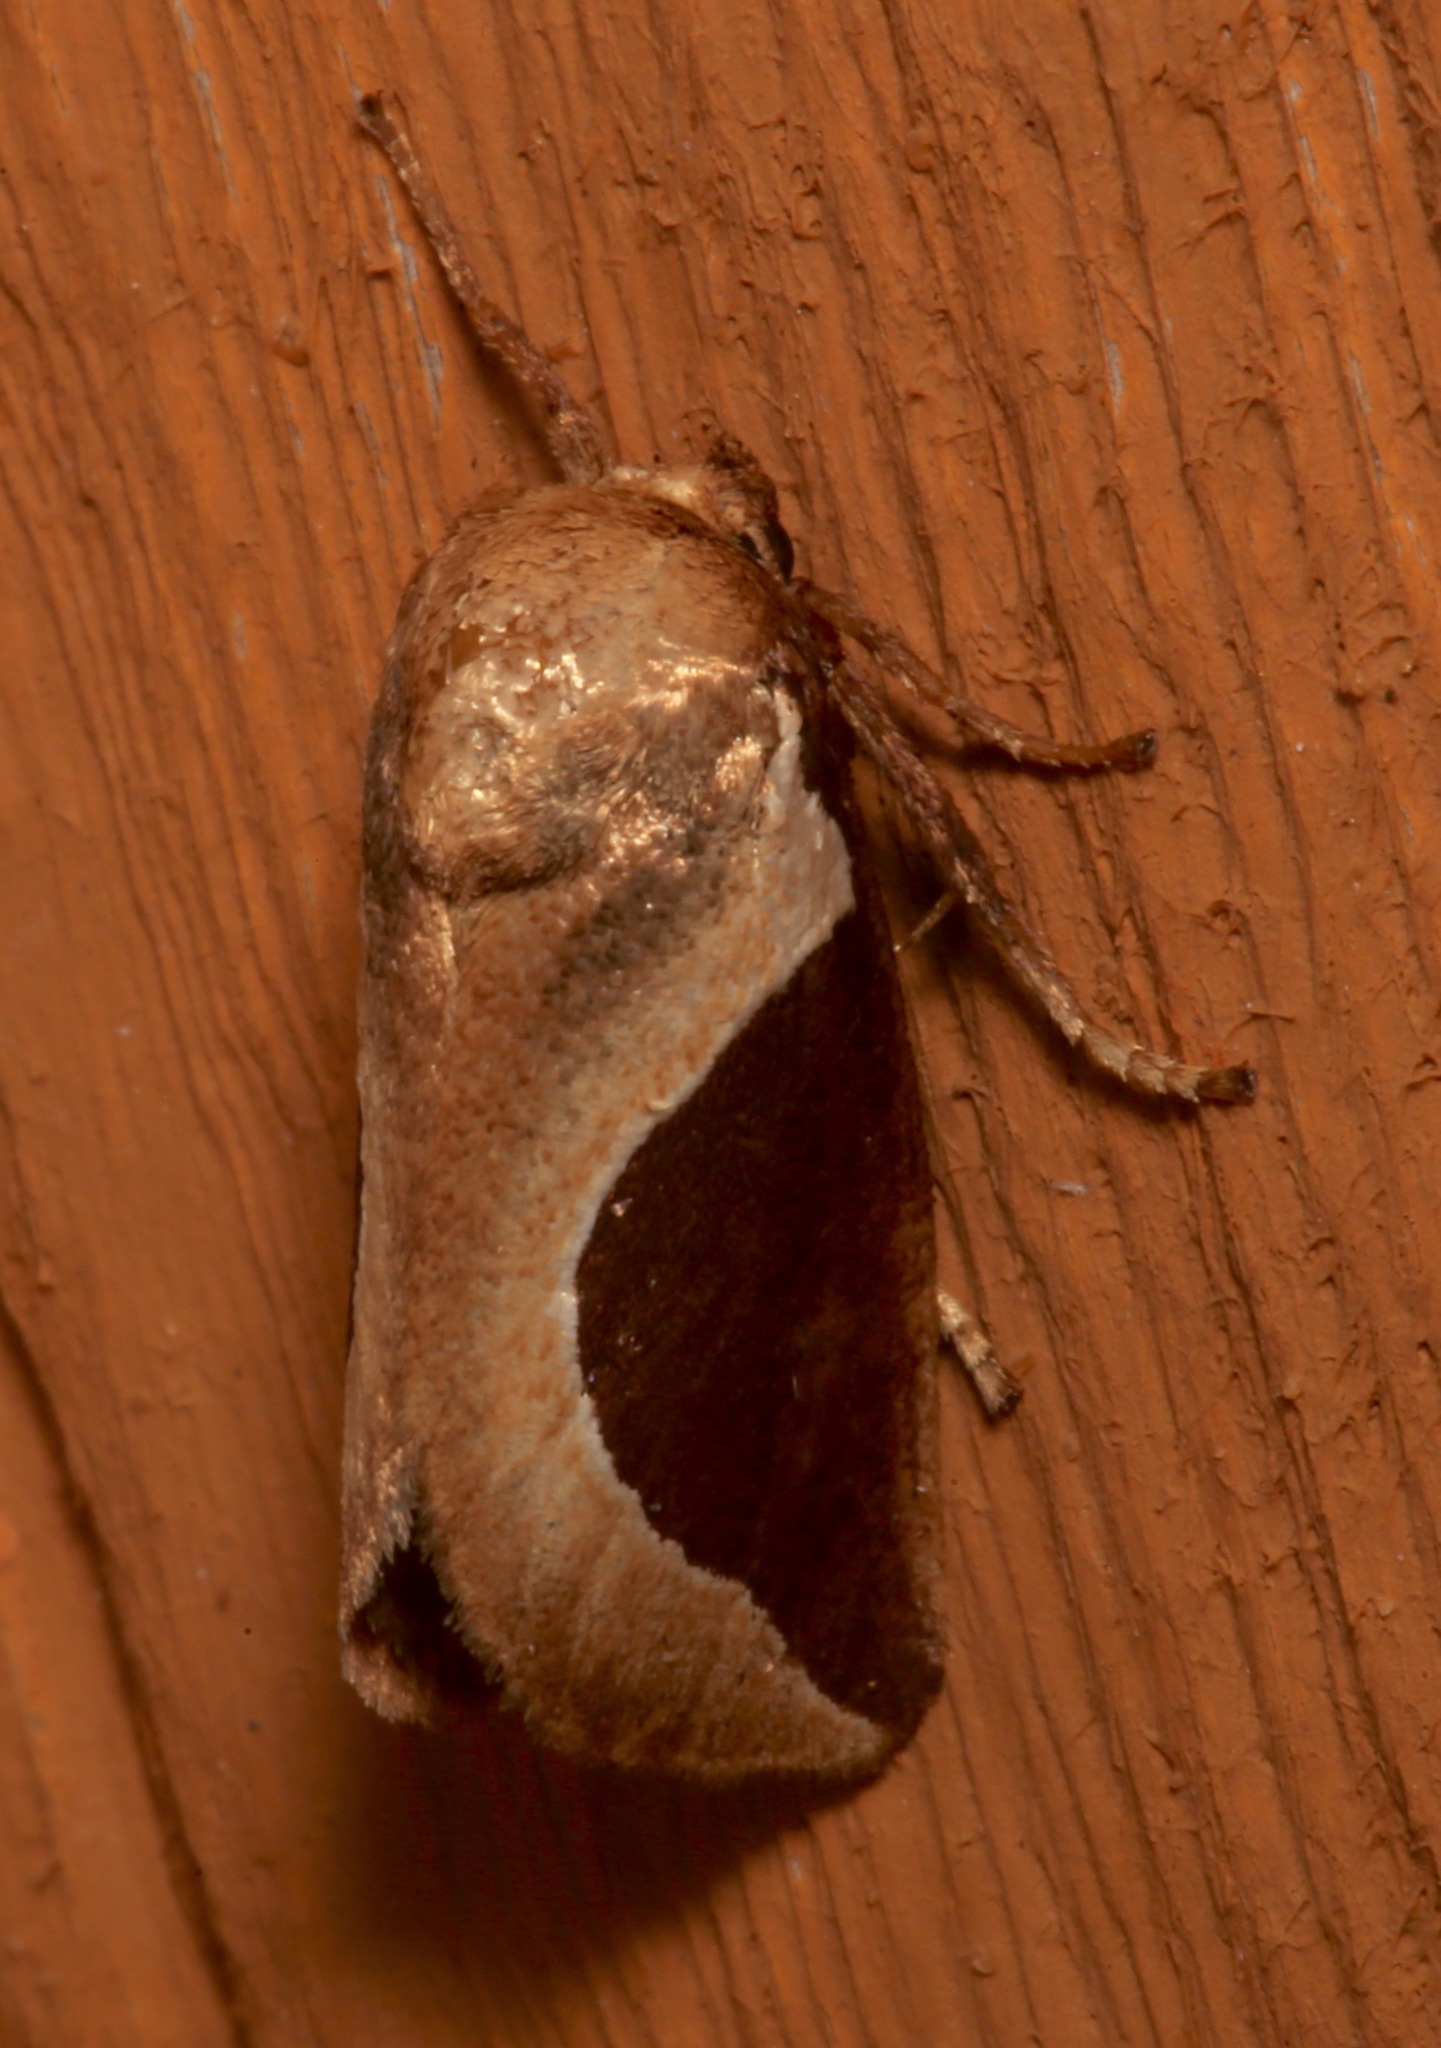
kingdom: Animalia
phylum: Arthropoda
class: Insecta
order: Lepidoptera
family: Limacodidae
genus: Prolimacodes
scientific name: Prolimacodes badia
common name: Skiff moth
